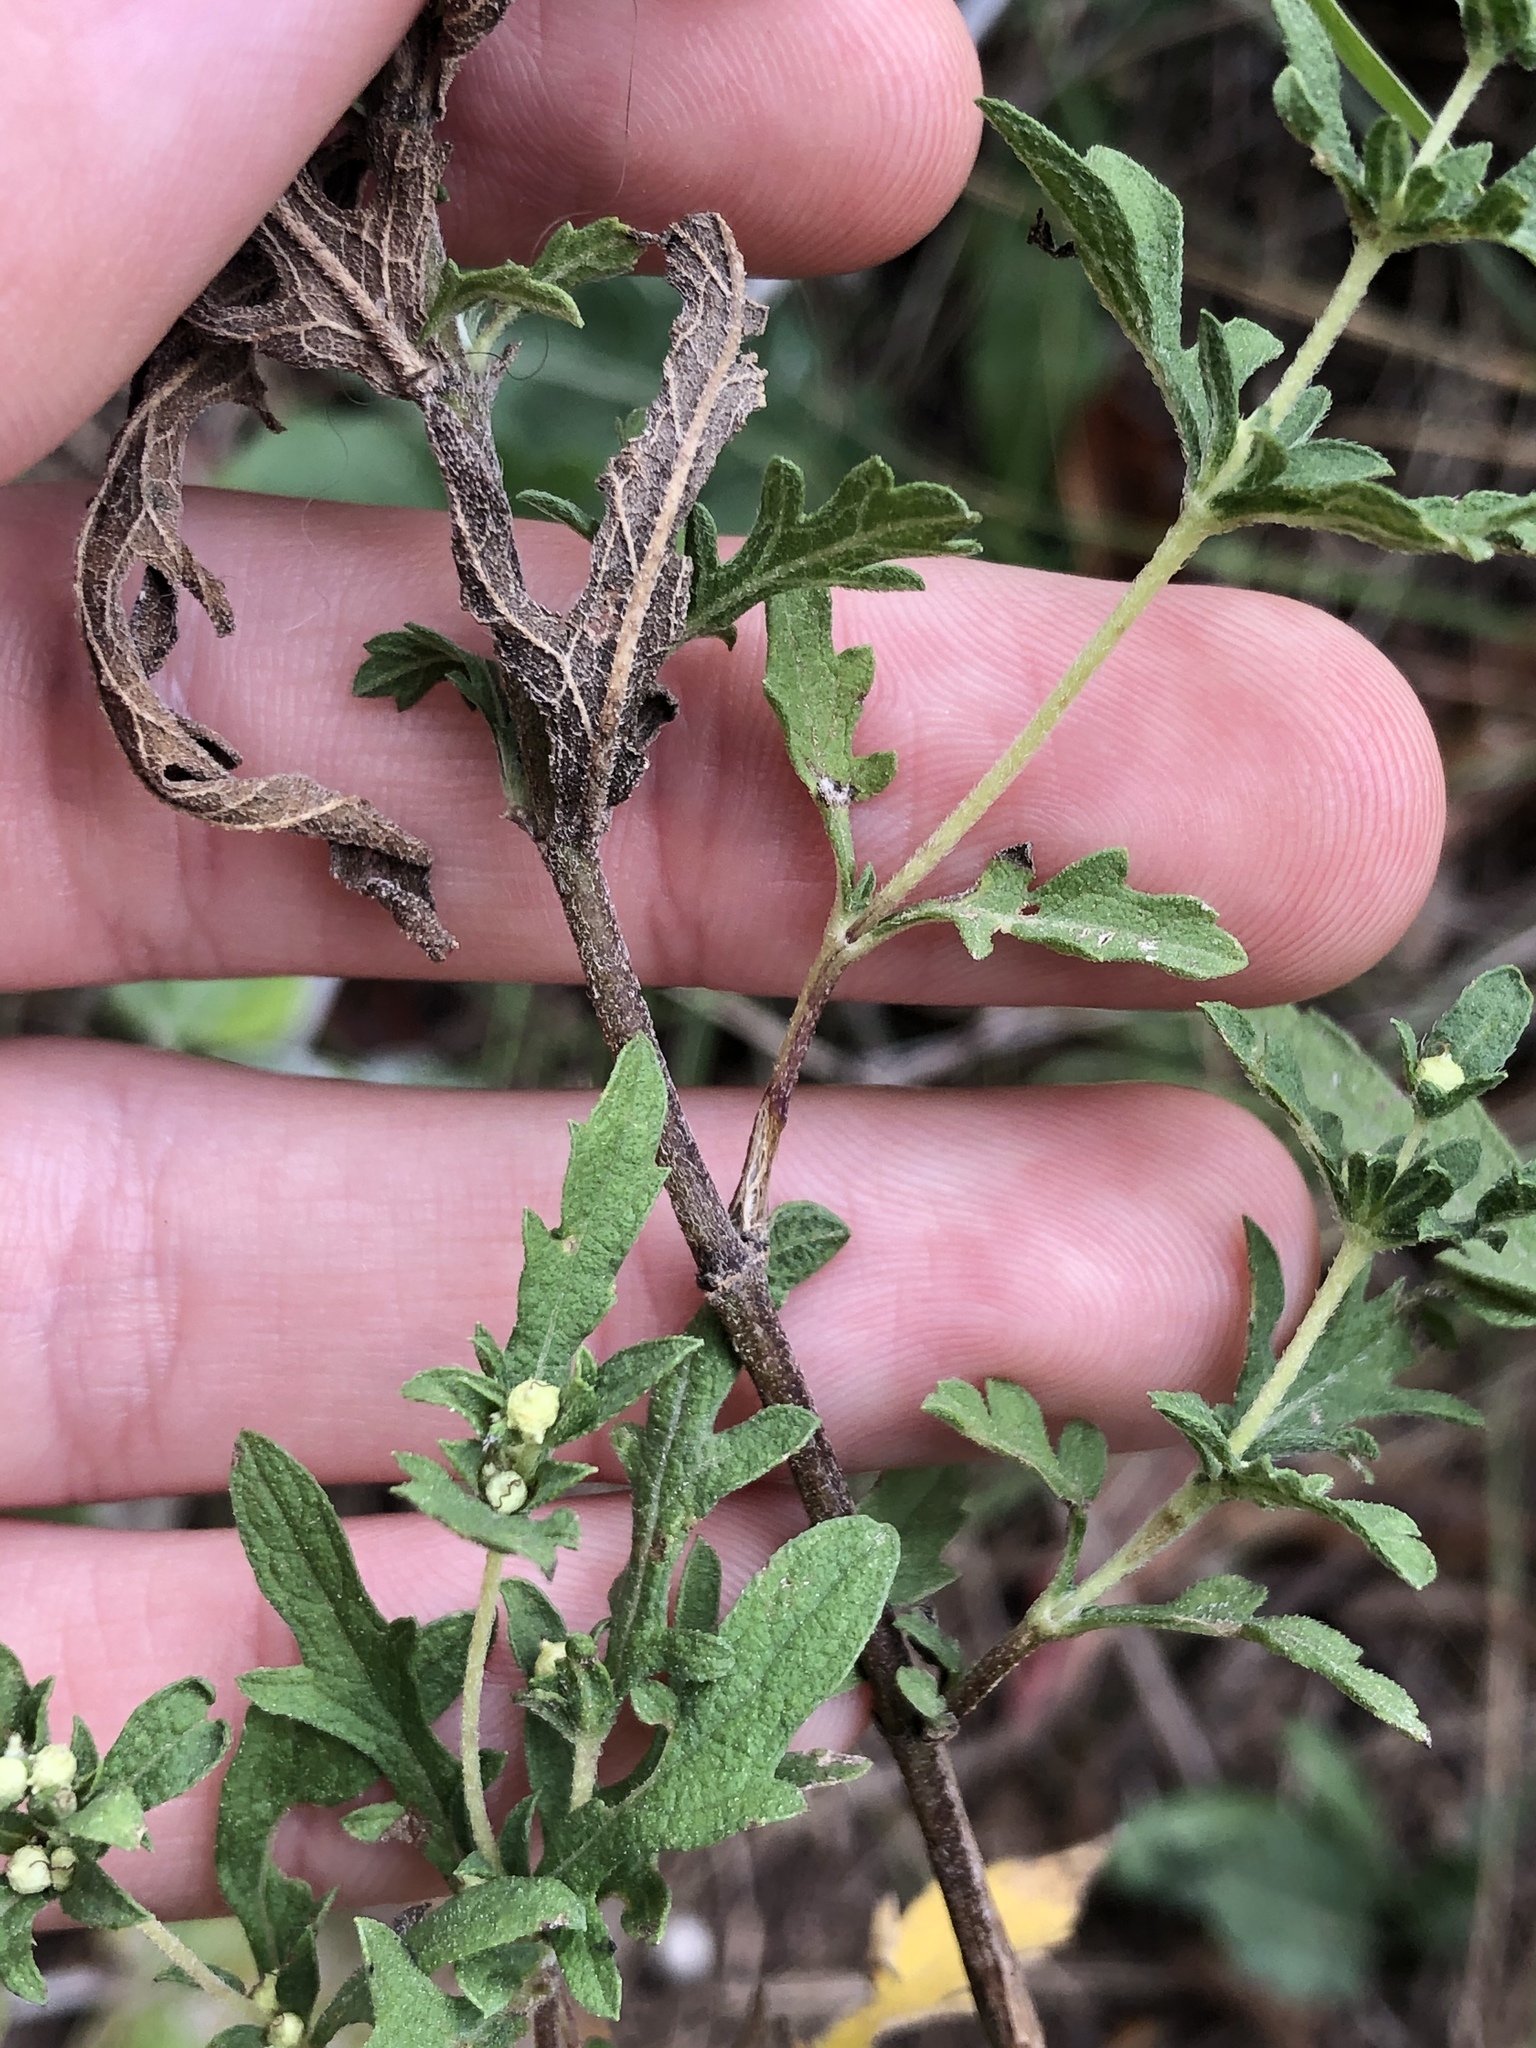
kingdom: Plantae
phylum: Tracheophyta
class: Magnoliopsida
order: Asterales
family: Asteraceae
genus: Ambrosia
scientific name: Ambrosia psilostachya
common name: Perennial ragweed
